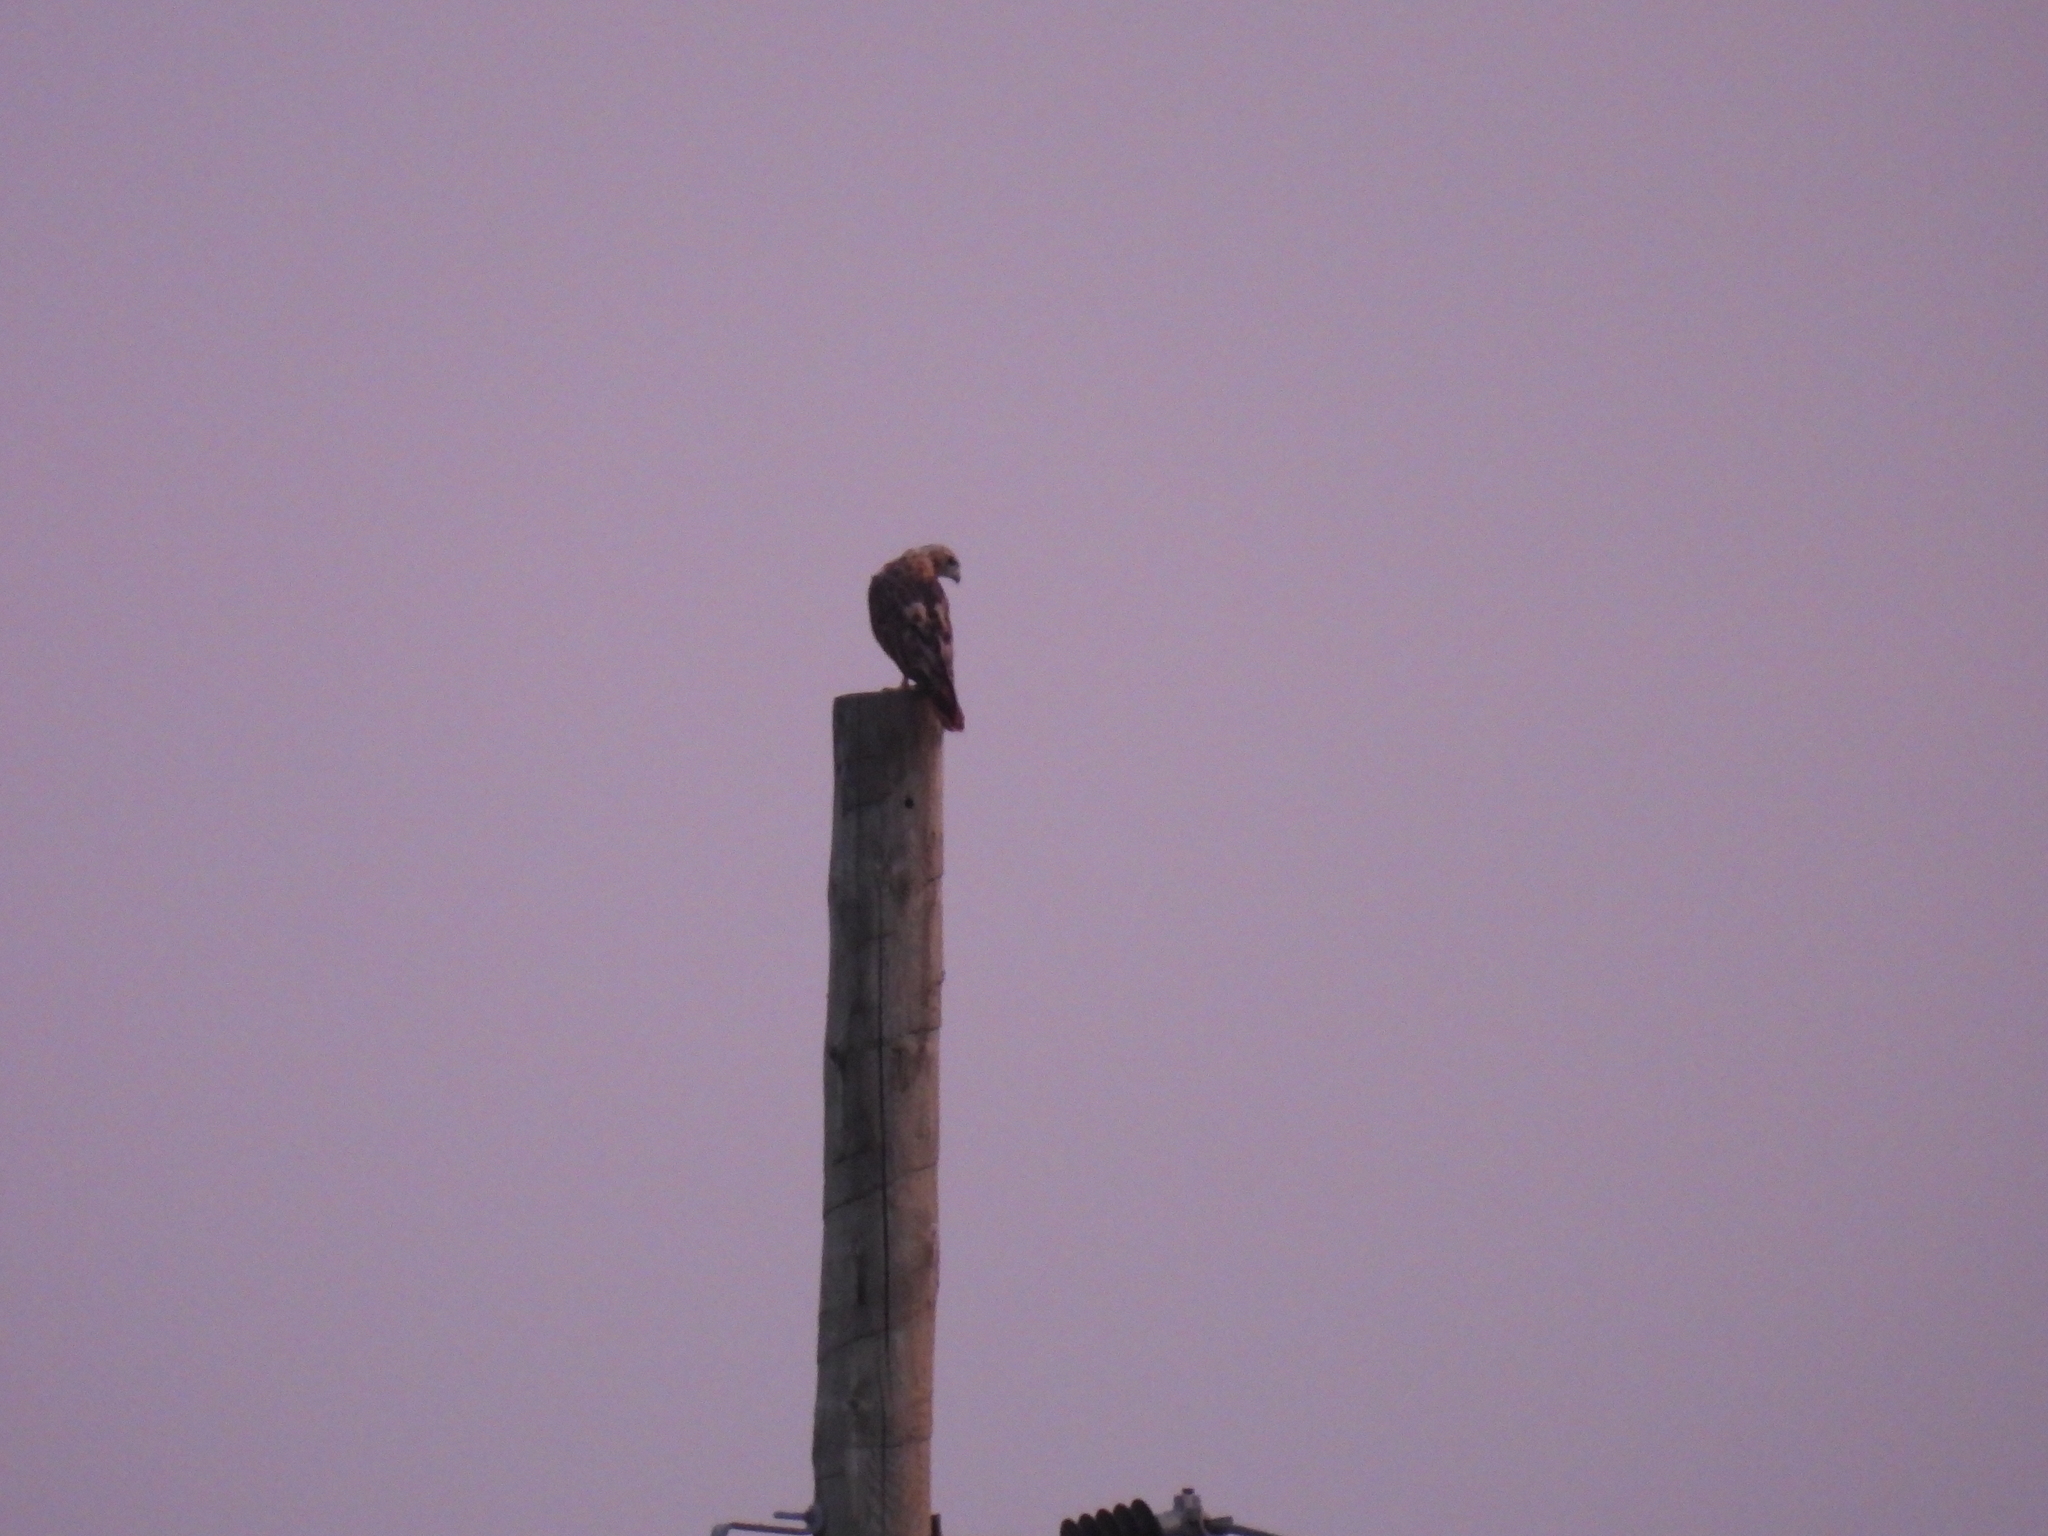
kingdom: Animalia
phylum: Chordata
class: Aves
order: Accipitriformes
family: Accipitridae
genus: Buteo
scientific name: Buteo jamaicensis
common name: Red-tailed hawk
